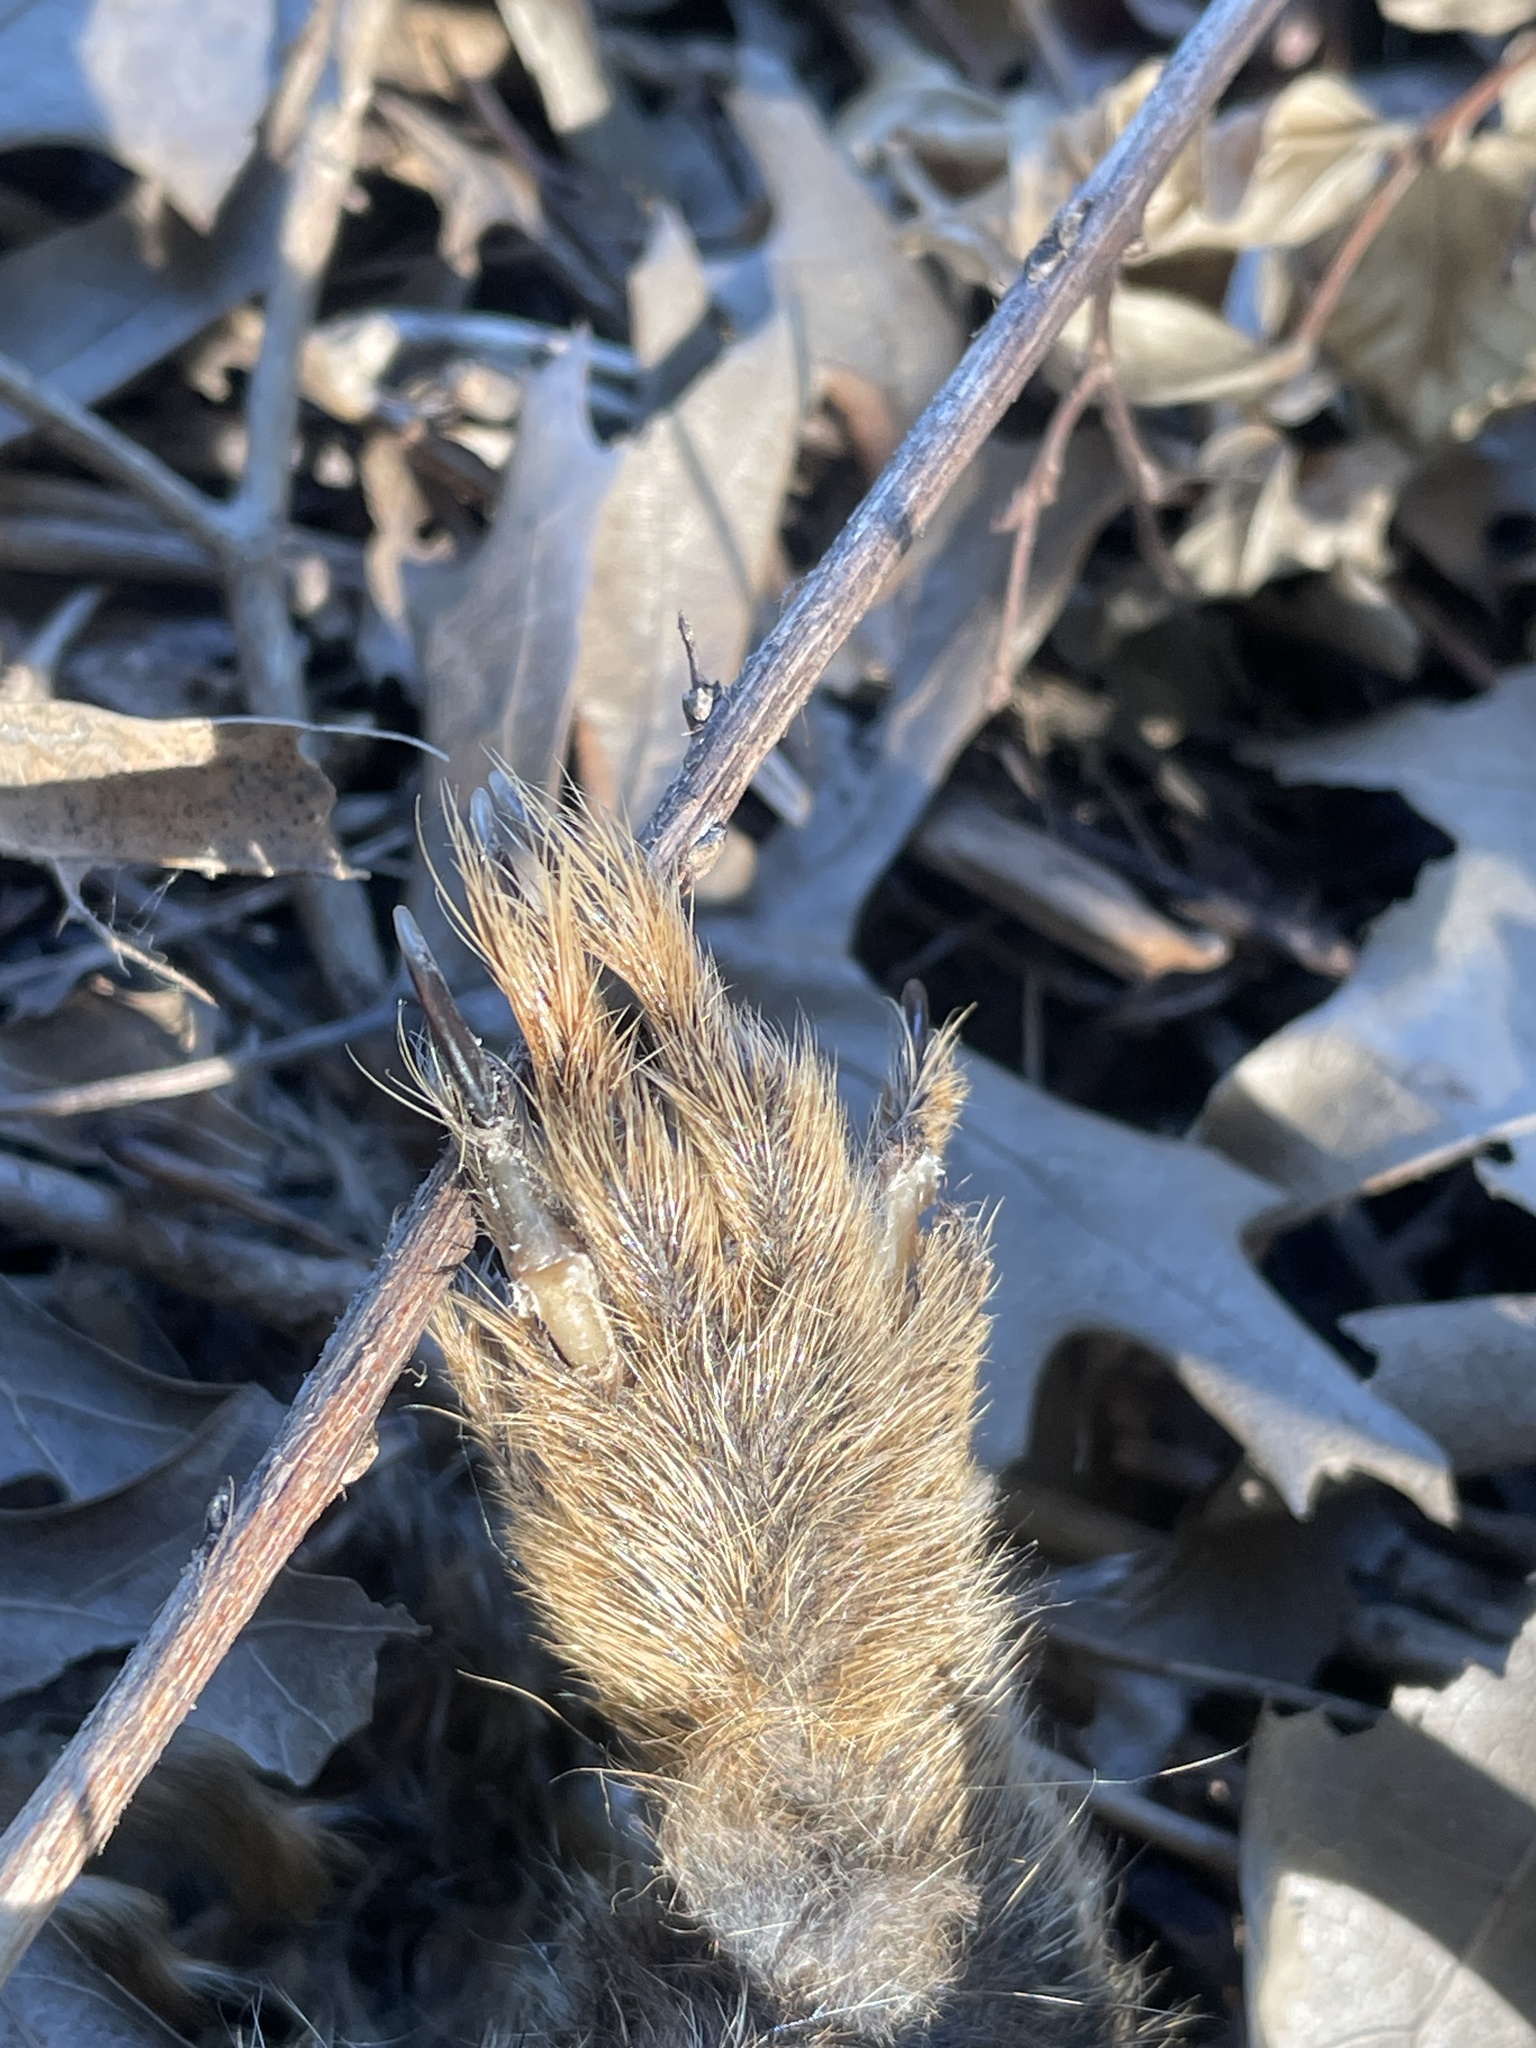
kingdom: Animalia
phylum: Chordata
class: Mammalia
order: Rodentia
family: Sciuridae
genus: Sciurus
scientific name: Sciurus niger
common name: Fox squirrel
